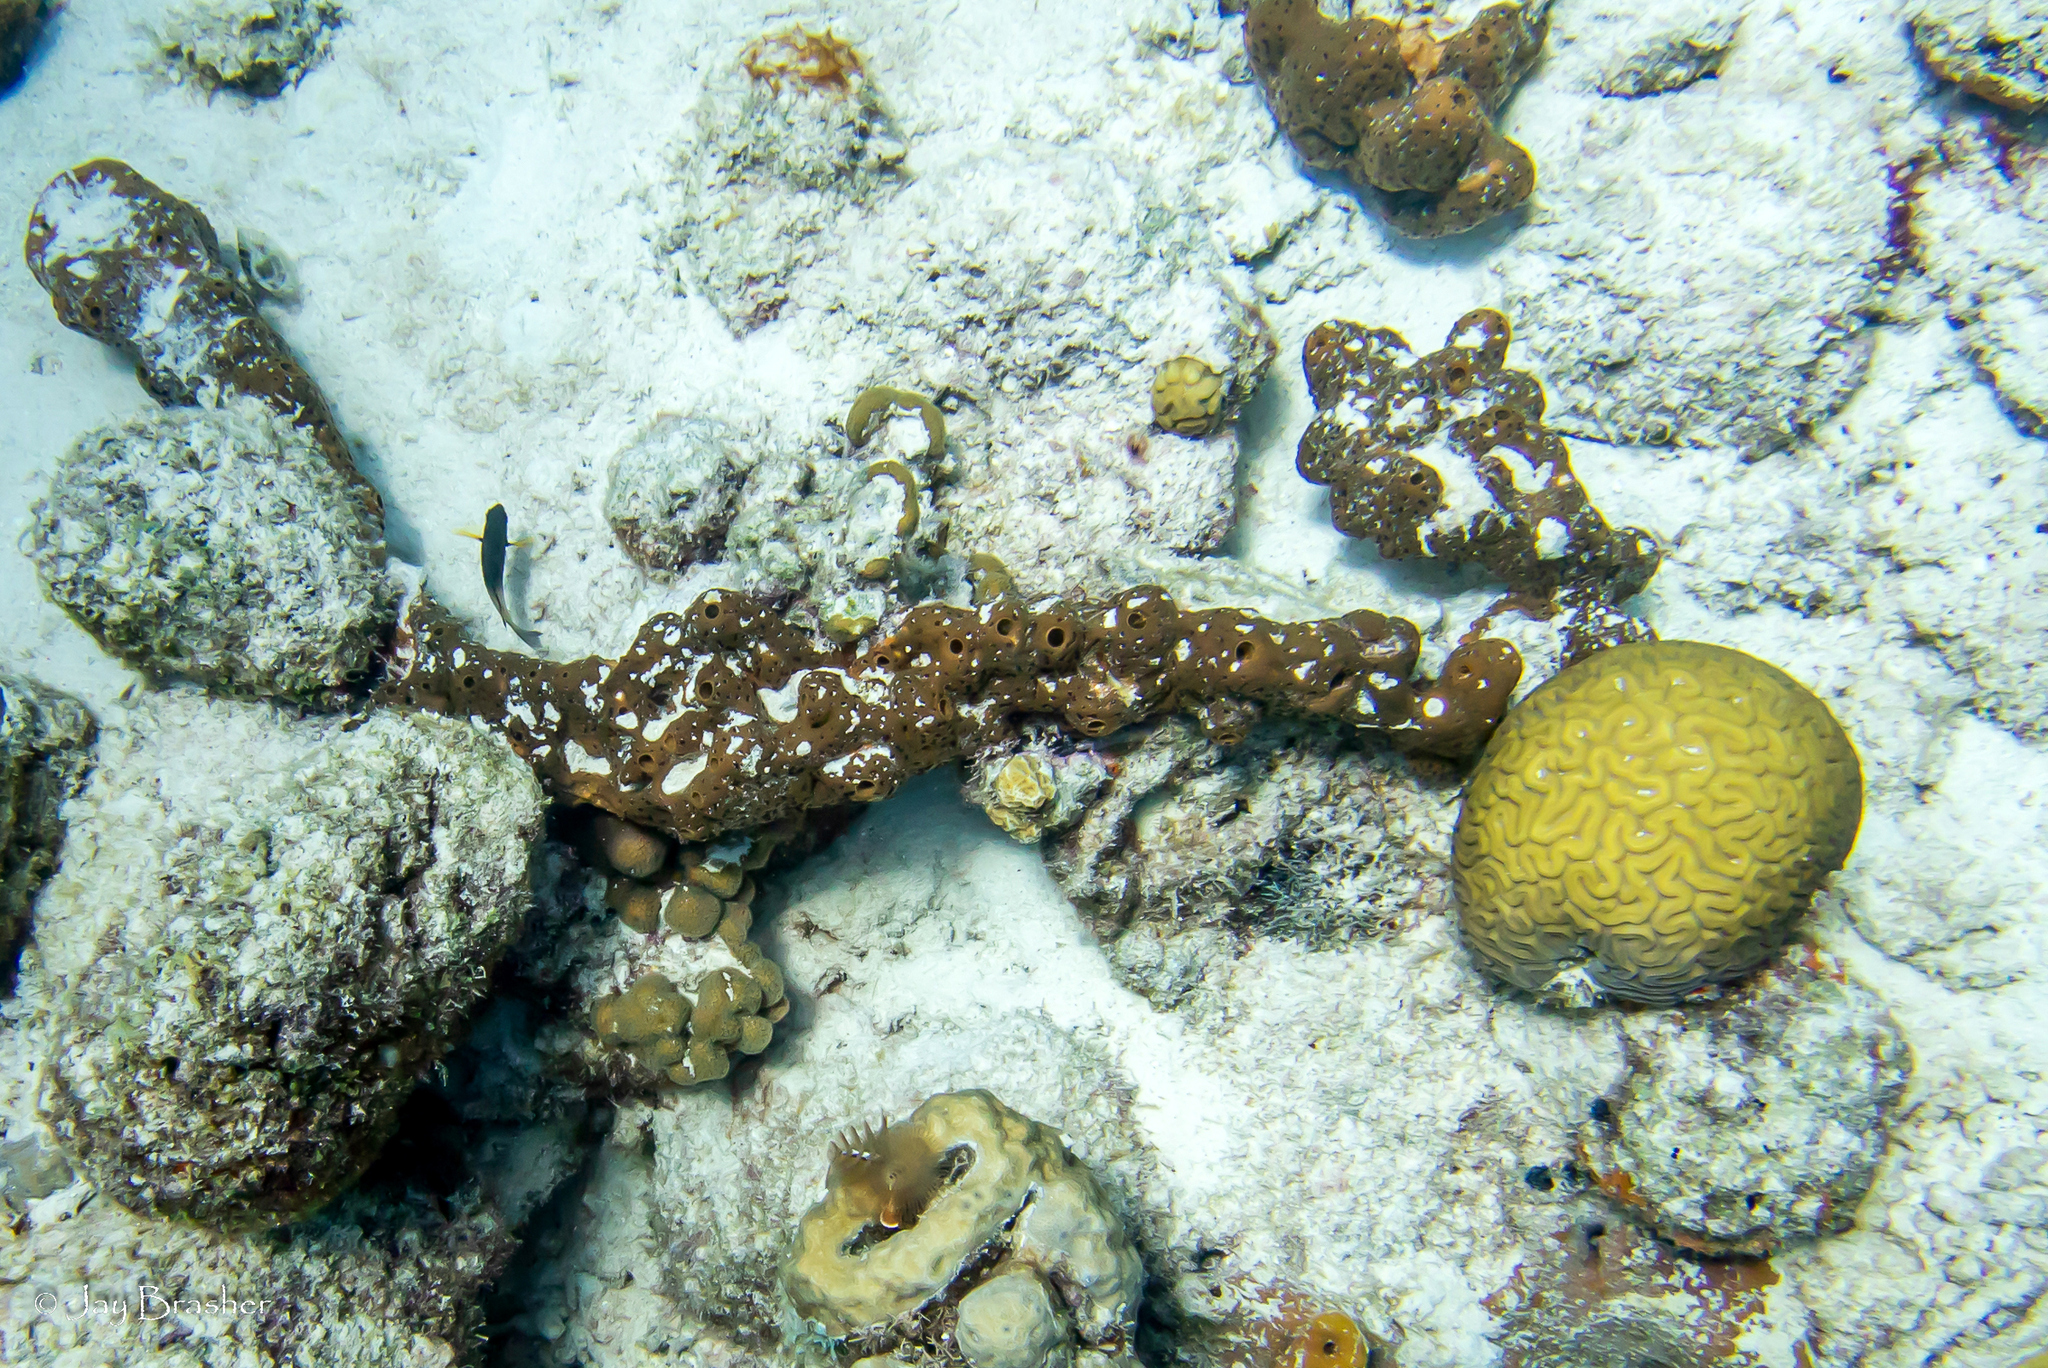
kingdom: Animalia
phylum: Porifera
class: Demospongiae
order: Agelasida
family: Agelasidae
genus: Agelas
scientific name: Agelas conifera
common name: Brown tube sponge
